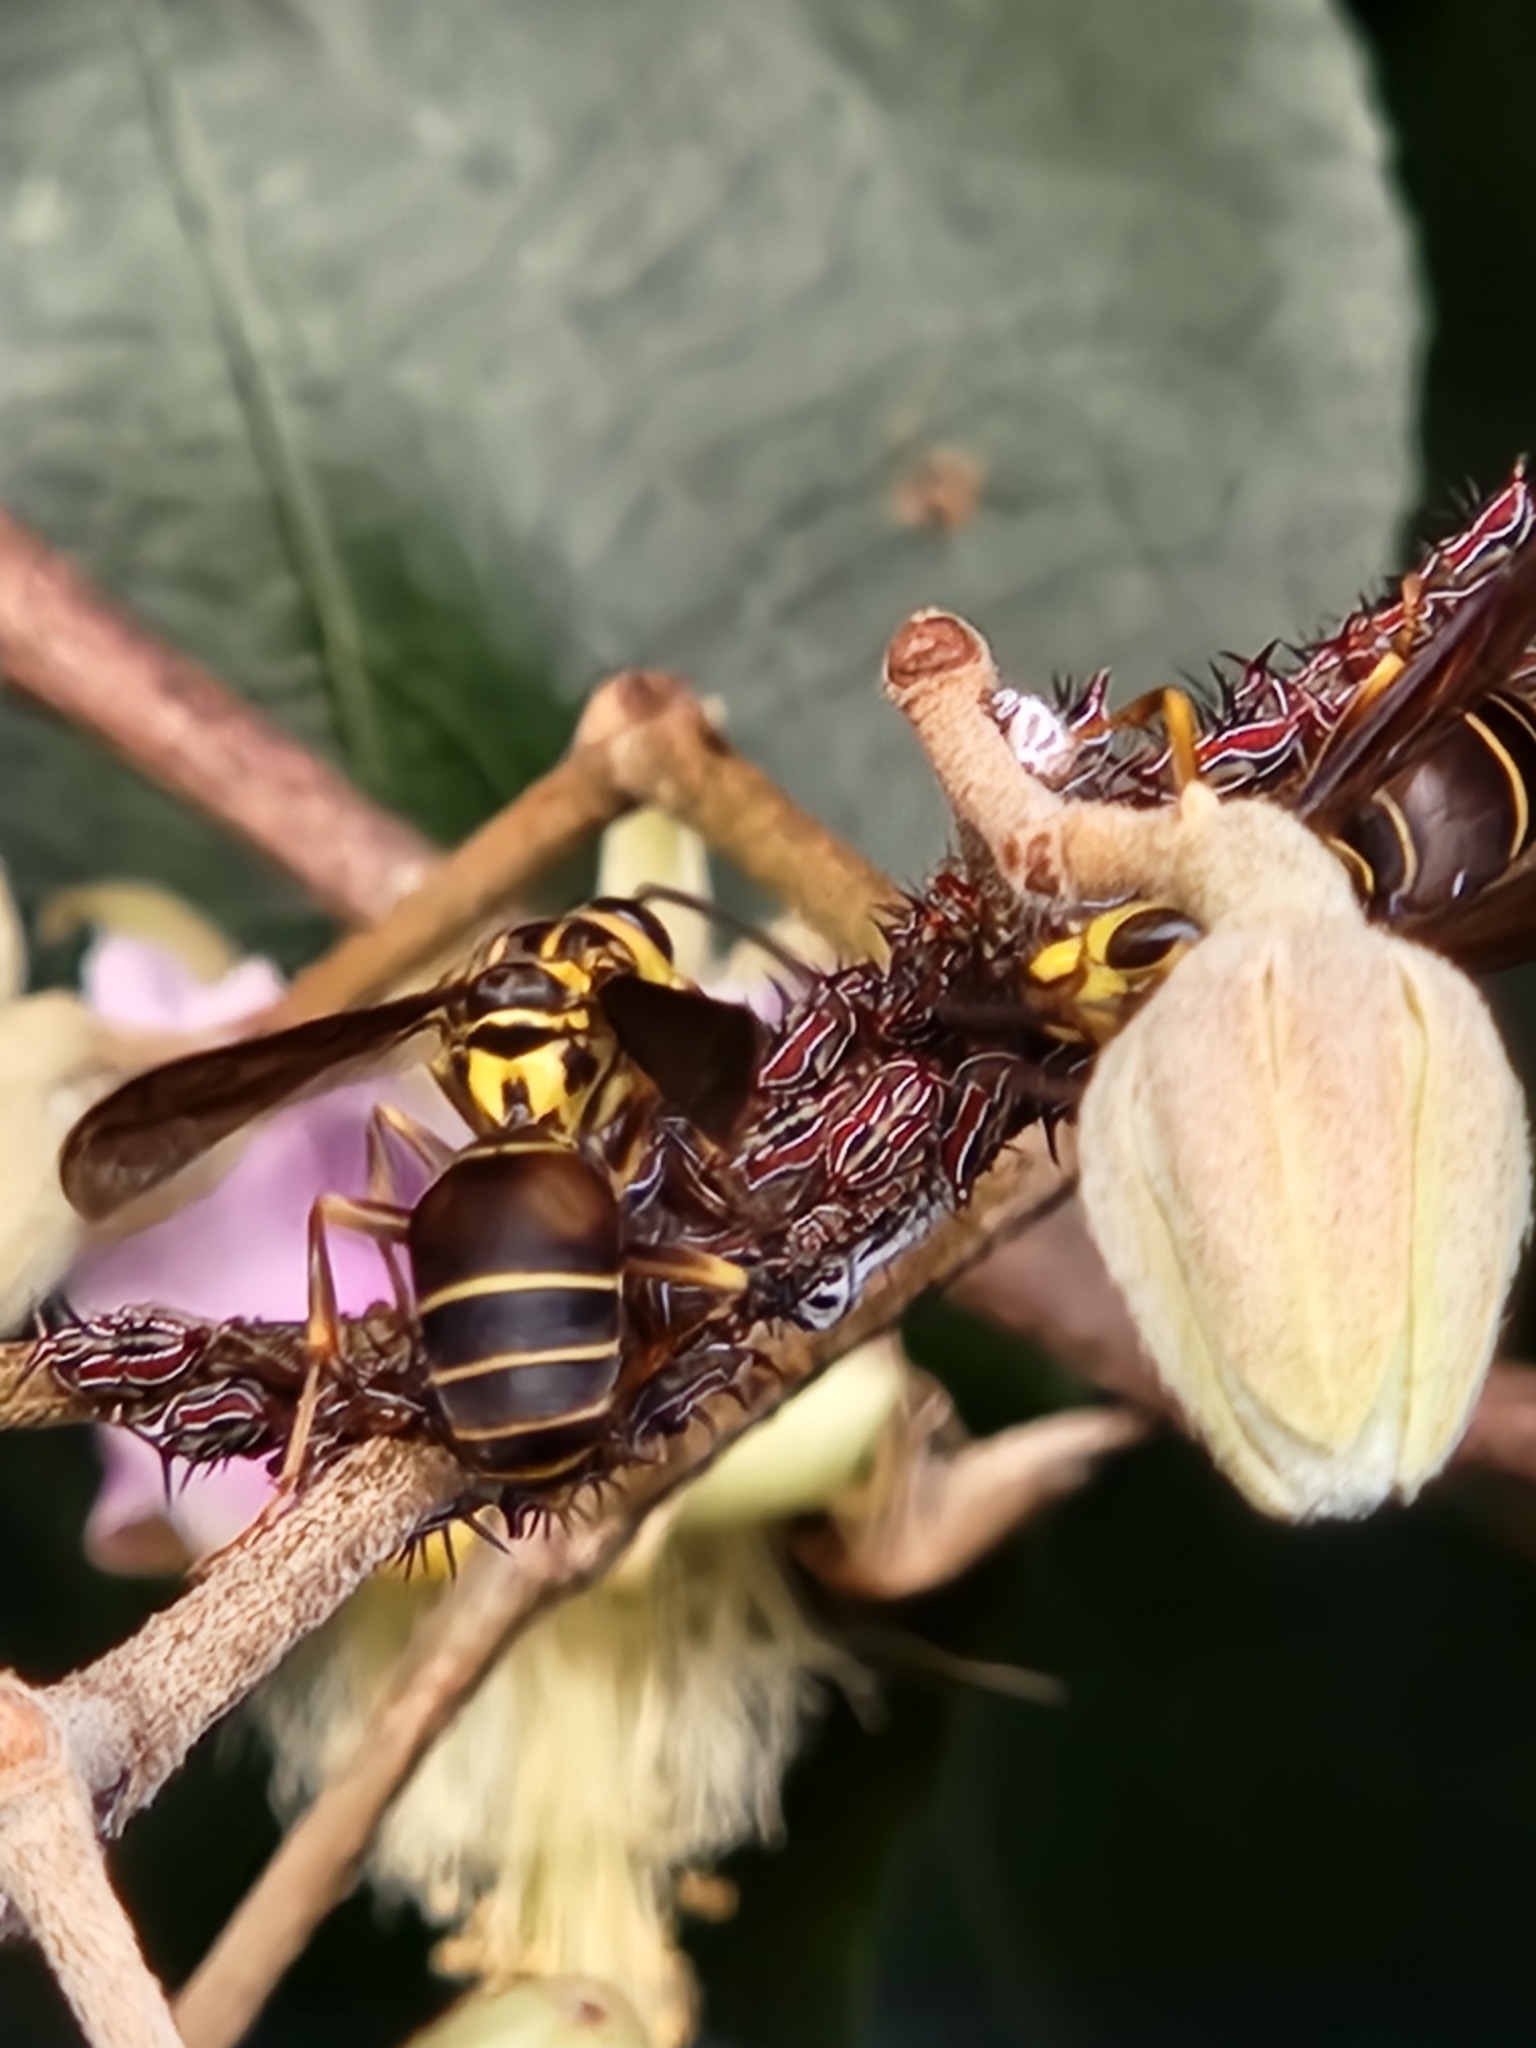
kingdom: Animalia
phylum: Arthropoda
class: Insecta
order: Hymenoptera
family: Vespidae
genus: Parachartergus
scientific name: Parachartergus vespiceps
